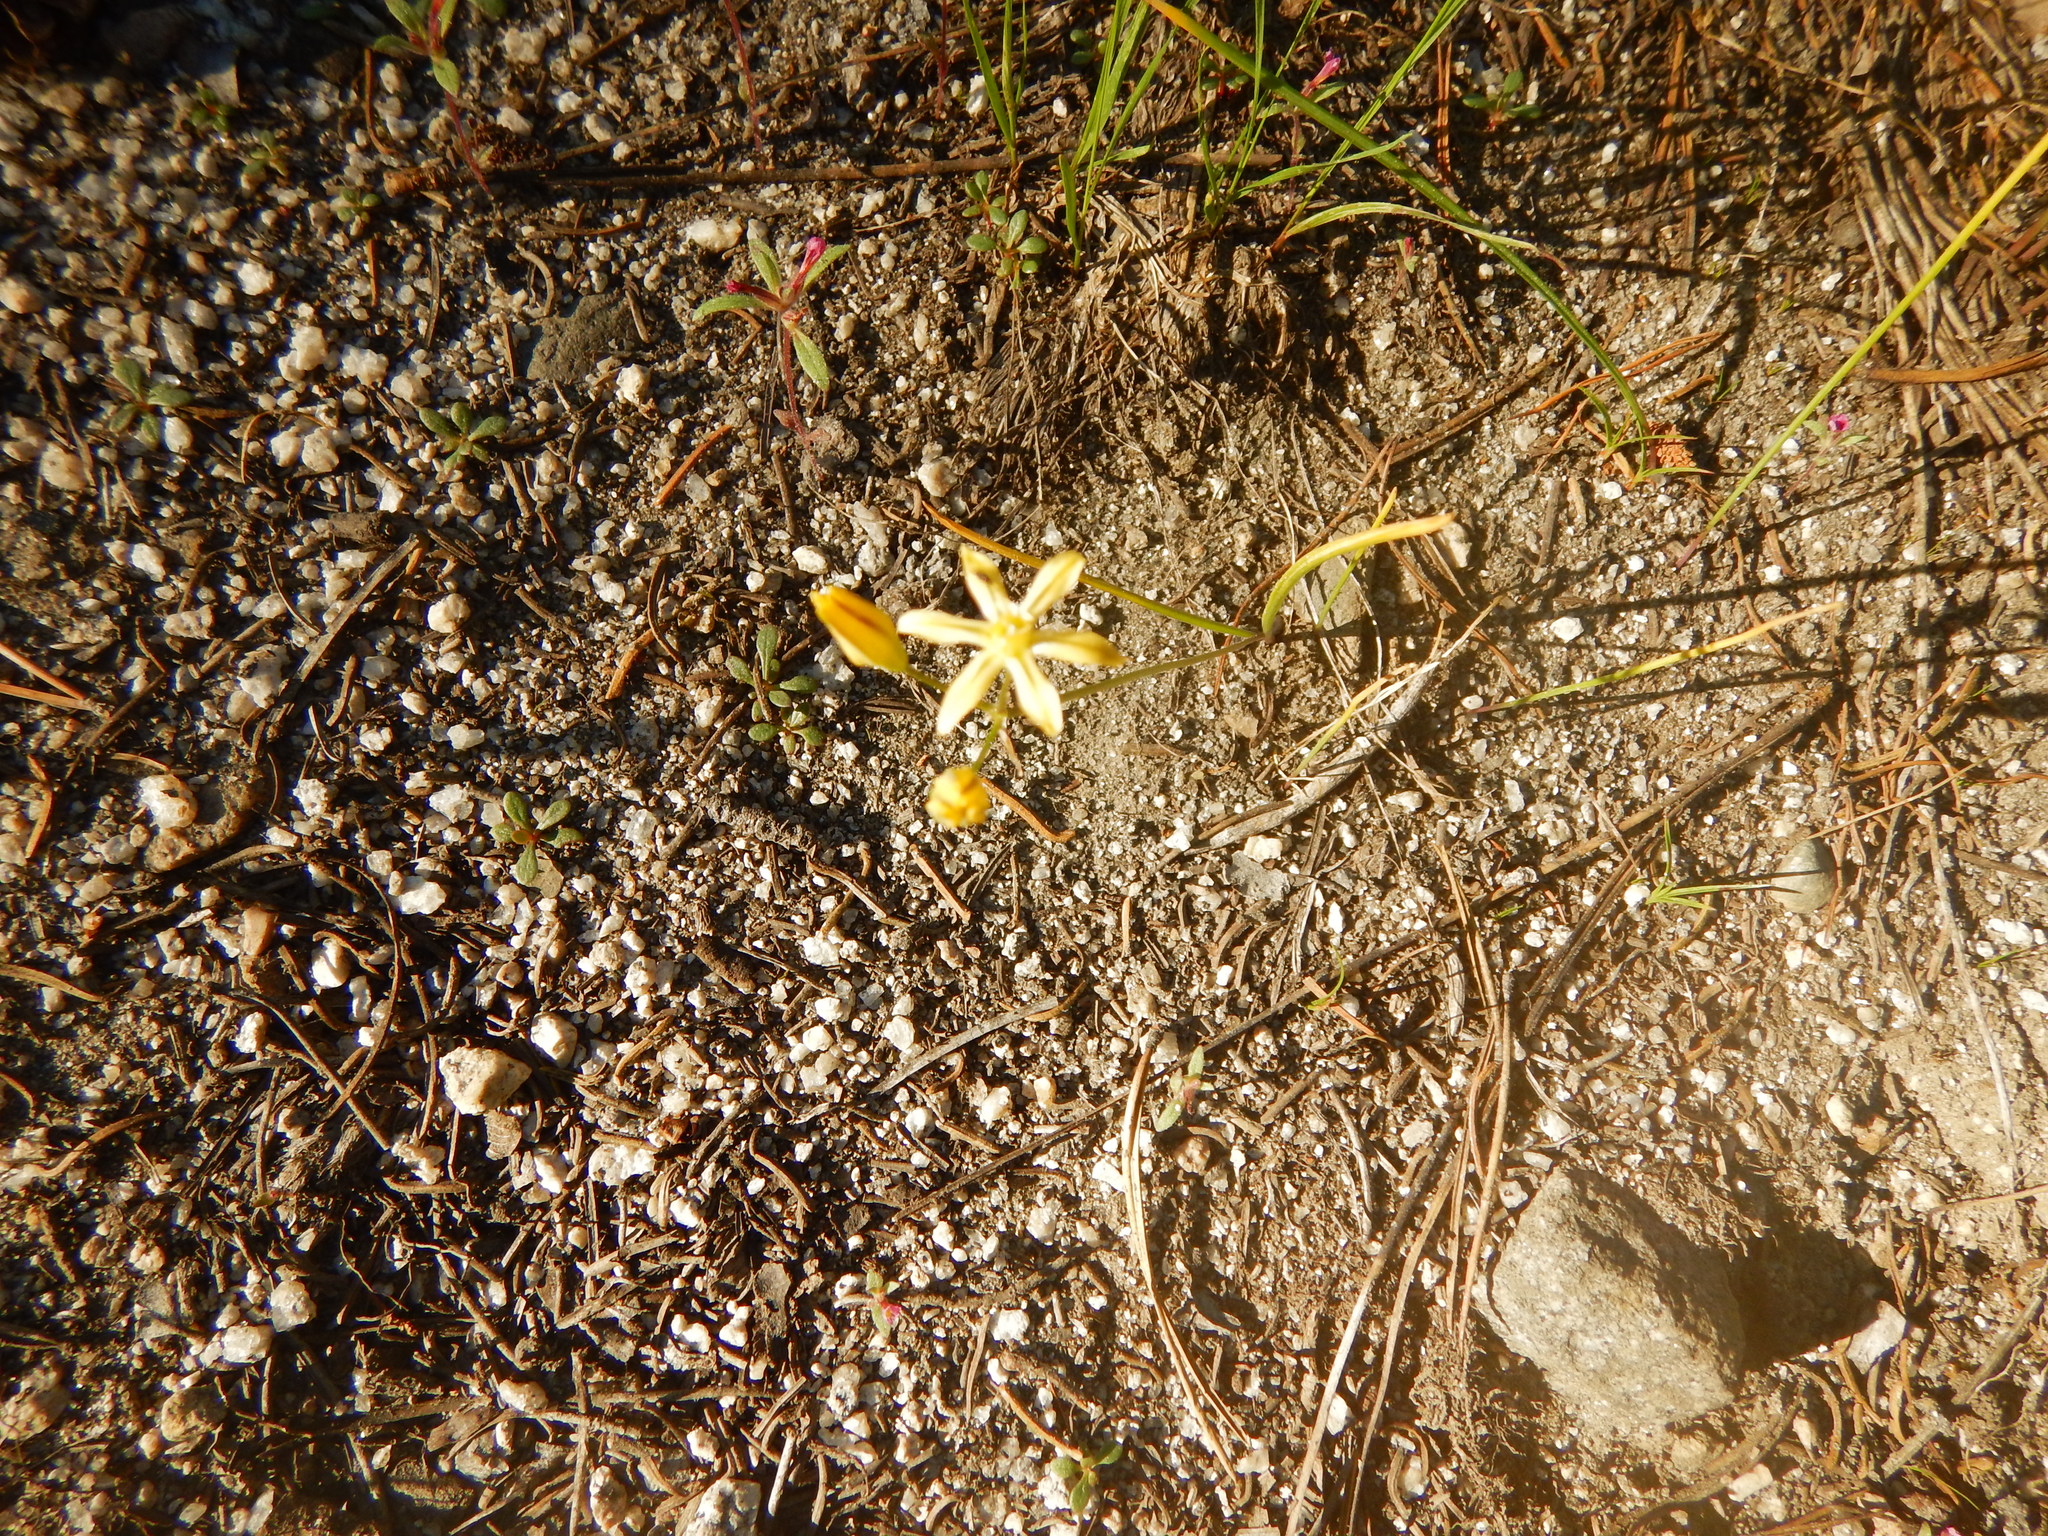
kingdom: Plantae
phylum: Tracheophyta
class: Liliopsida
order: Asparagales
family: Asparagaceae
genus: Triteleia
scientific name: Triteleia ixioides
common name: Yellow-brodiaea
